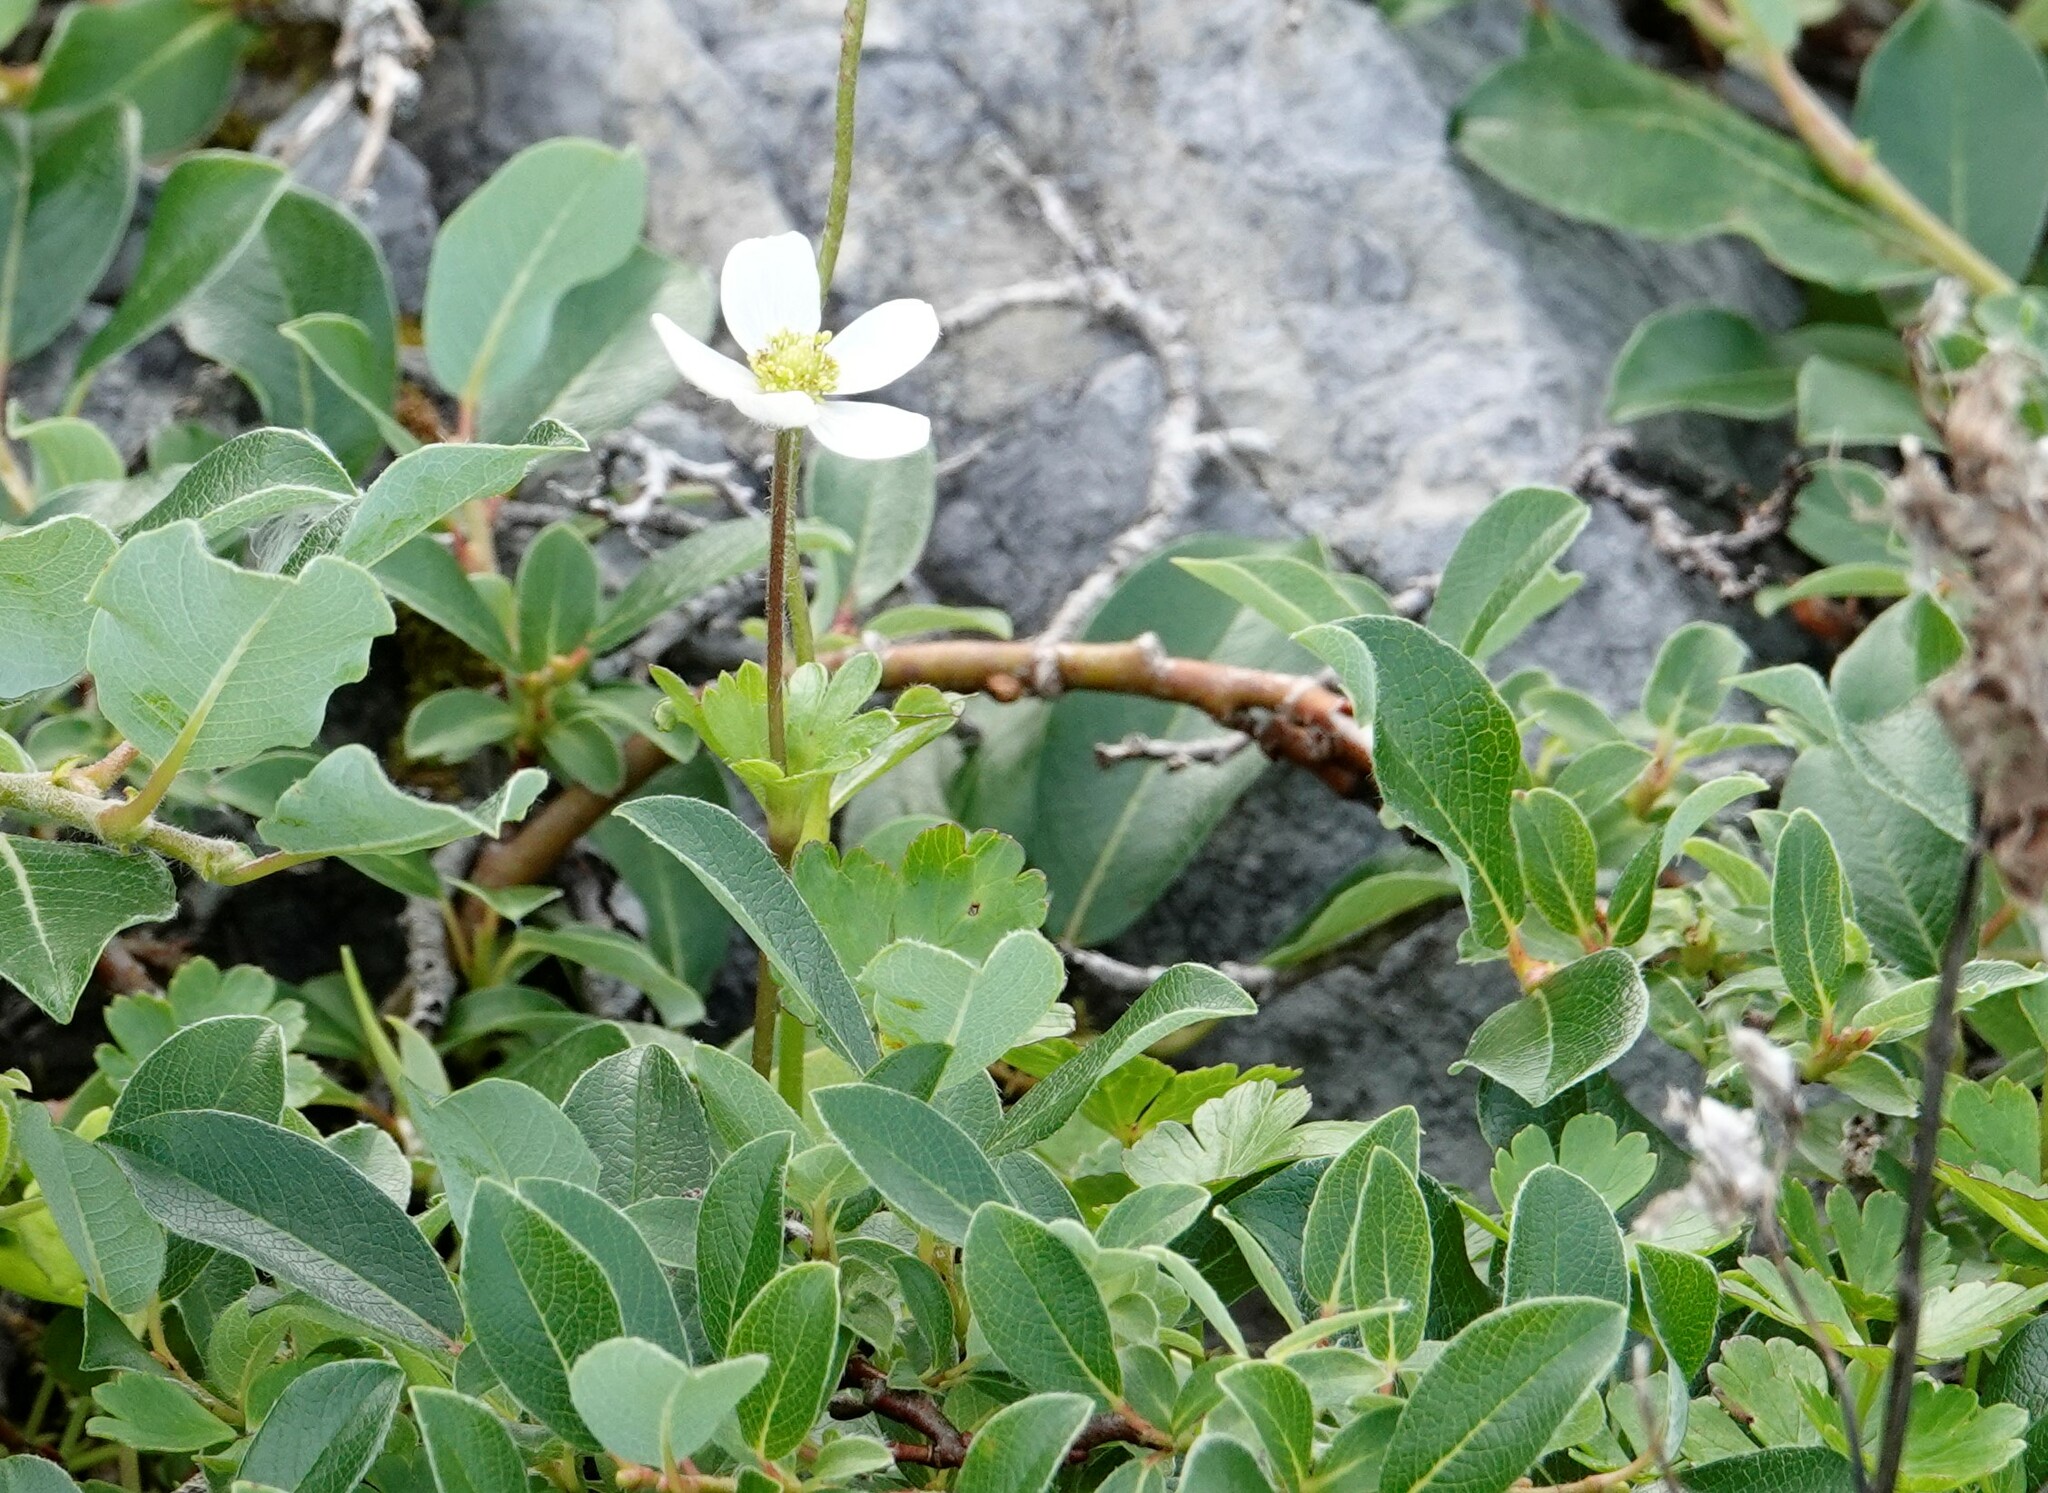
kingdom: Plantae
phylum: Tracheophyta
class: Magnoliopsida
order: Ranunculales
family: Ranunculaceae
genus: Anemone
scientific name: Anemone parviflora
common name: Northern anemone
